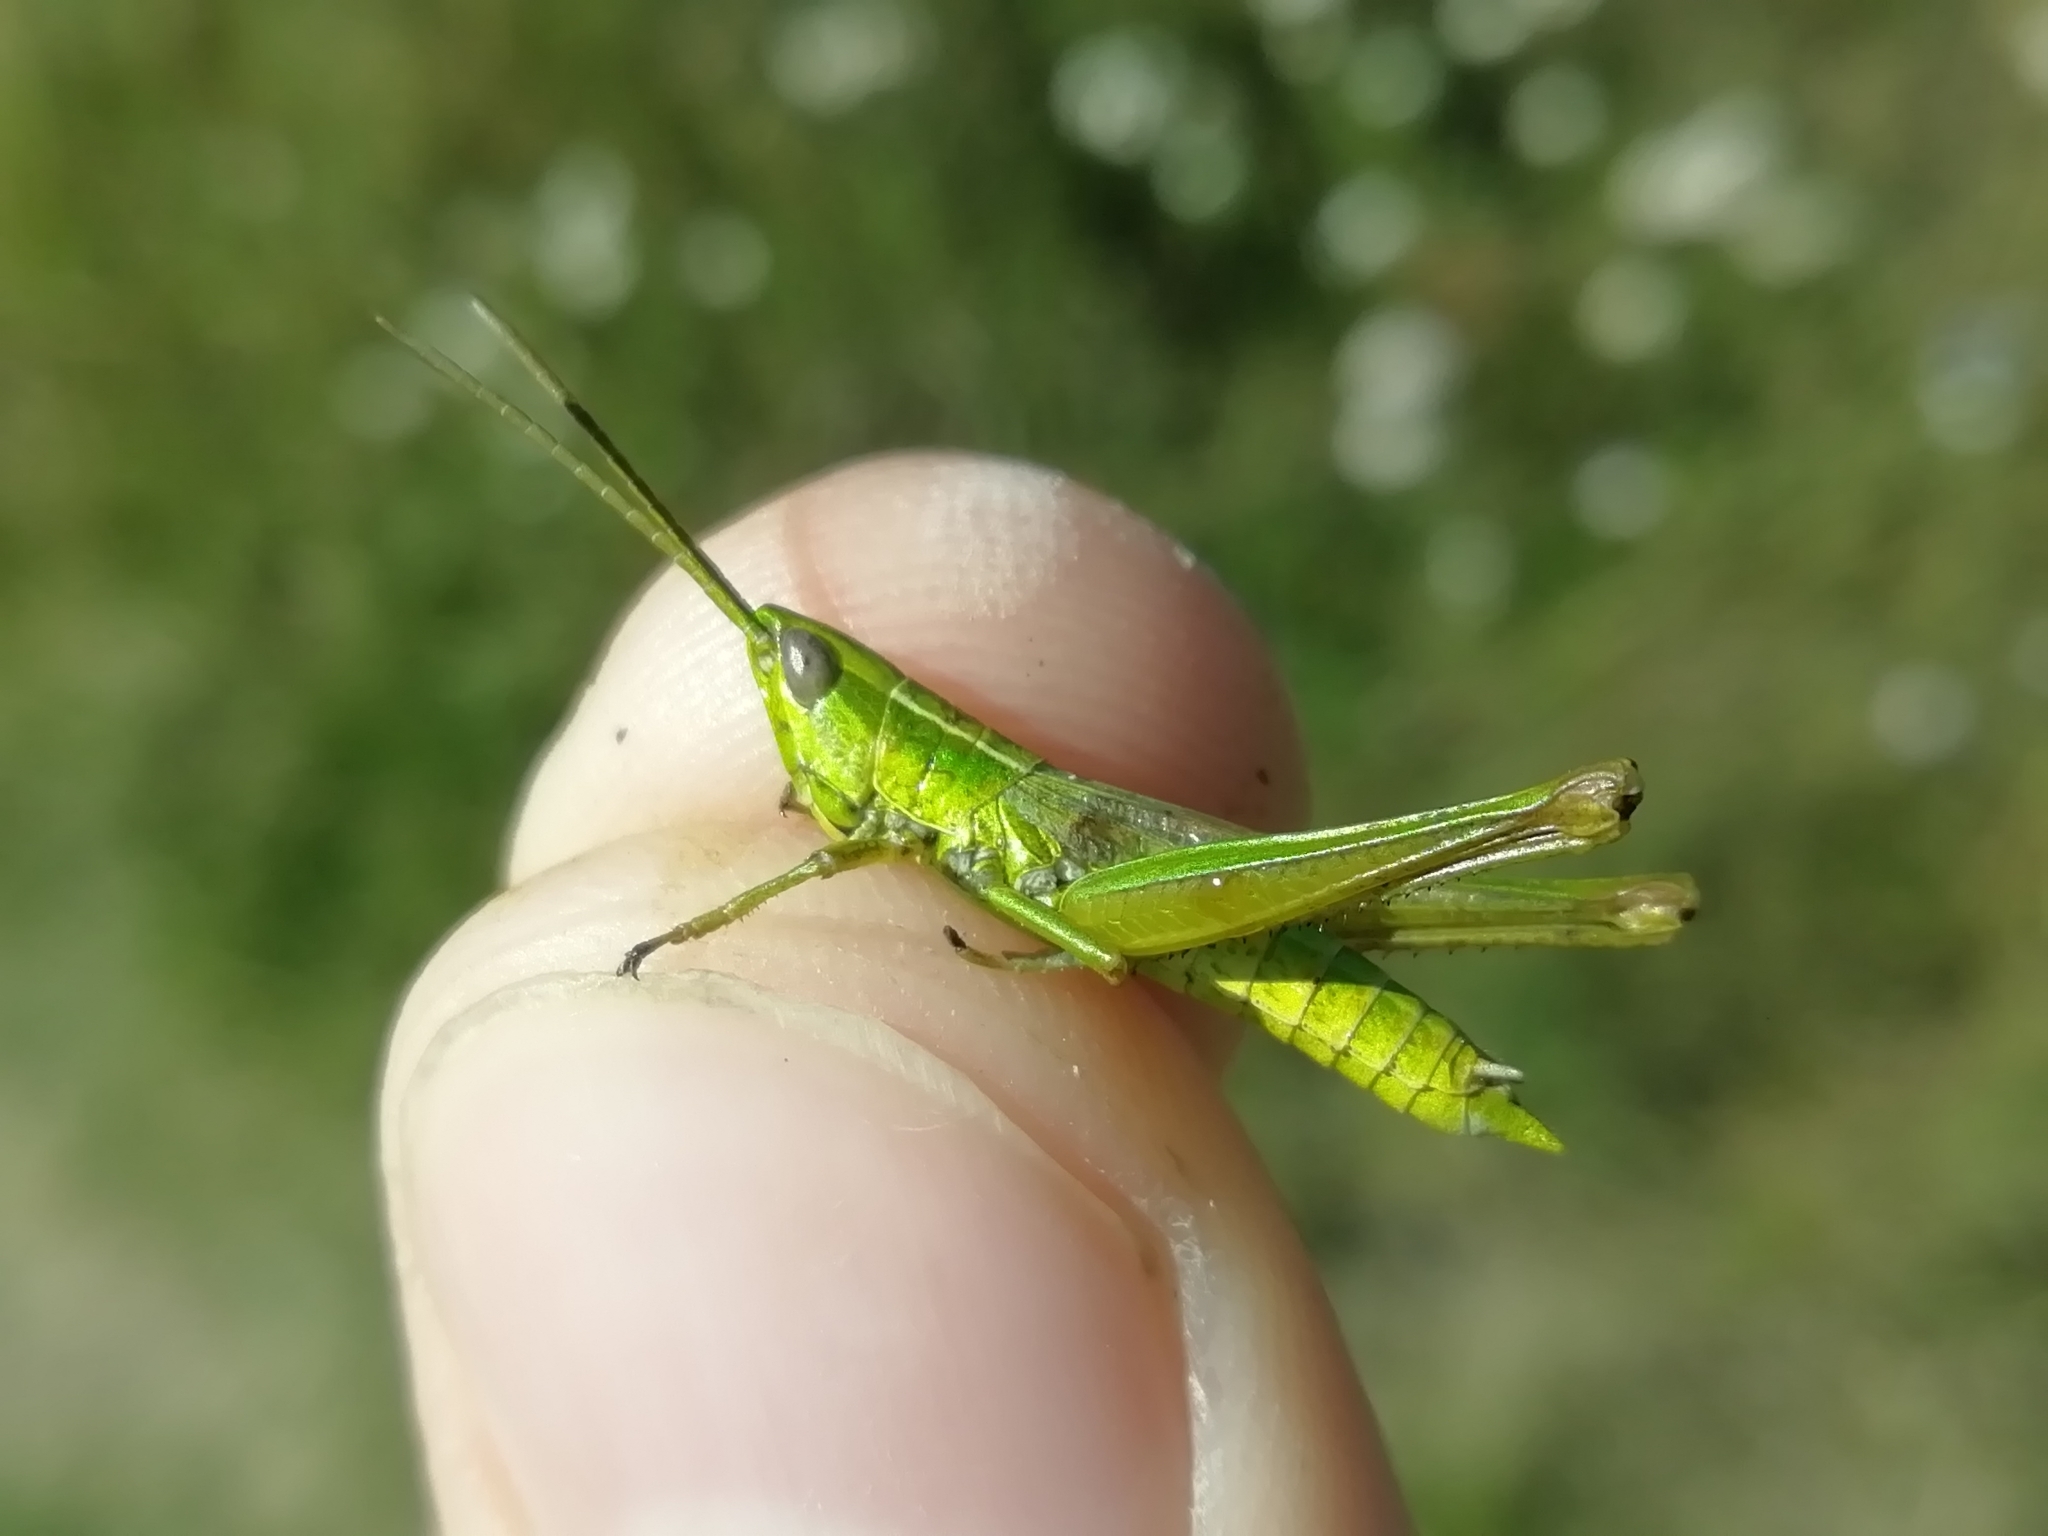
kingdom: Animalia
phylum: Arthropoda
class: Insecta
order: Orthoptera
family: Acrididae
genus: Euthystira
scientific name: Euthystira brachyptera
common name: Small gold grasshopper
